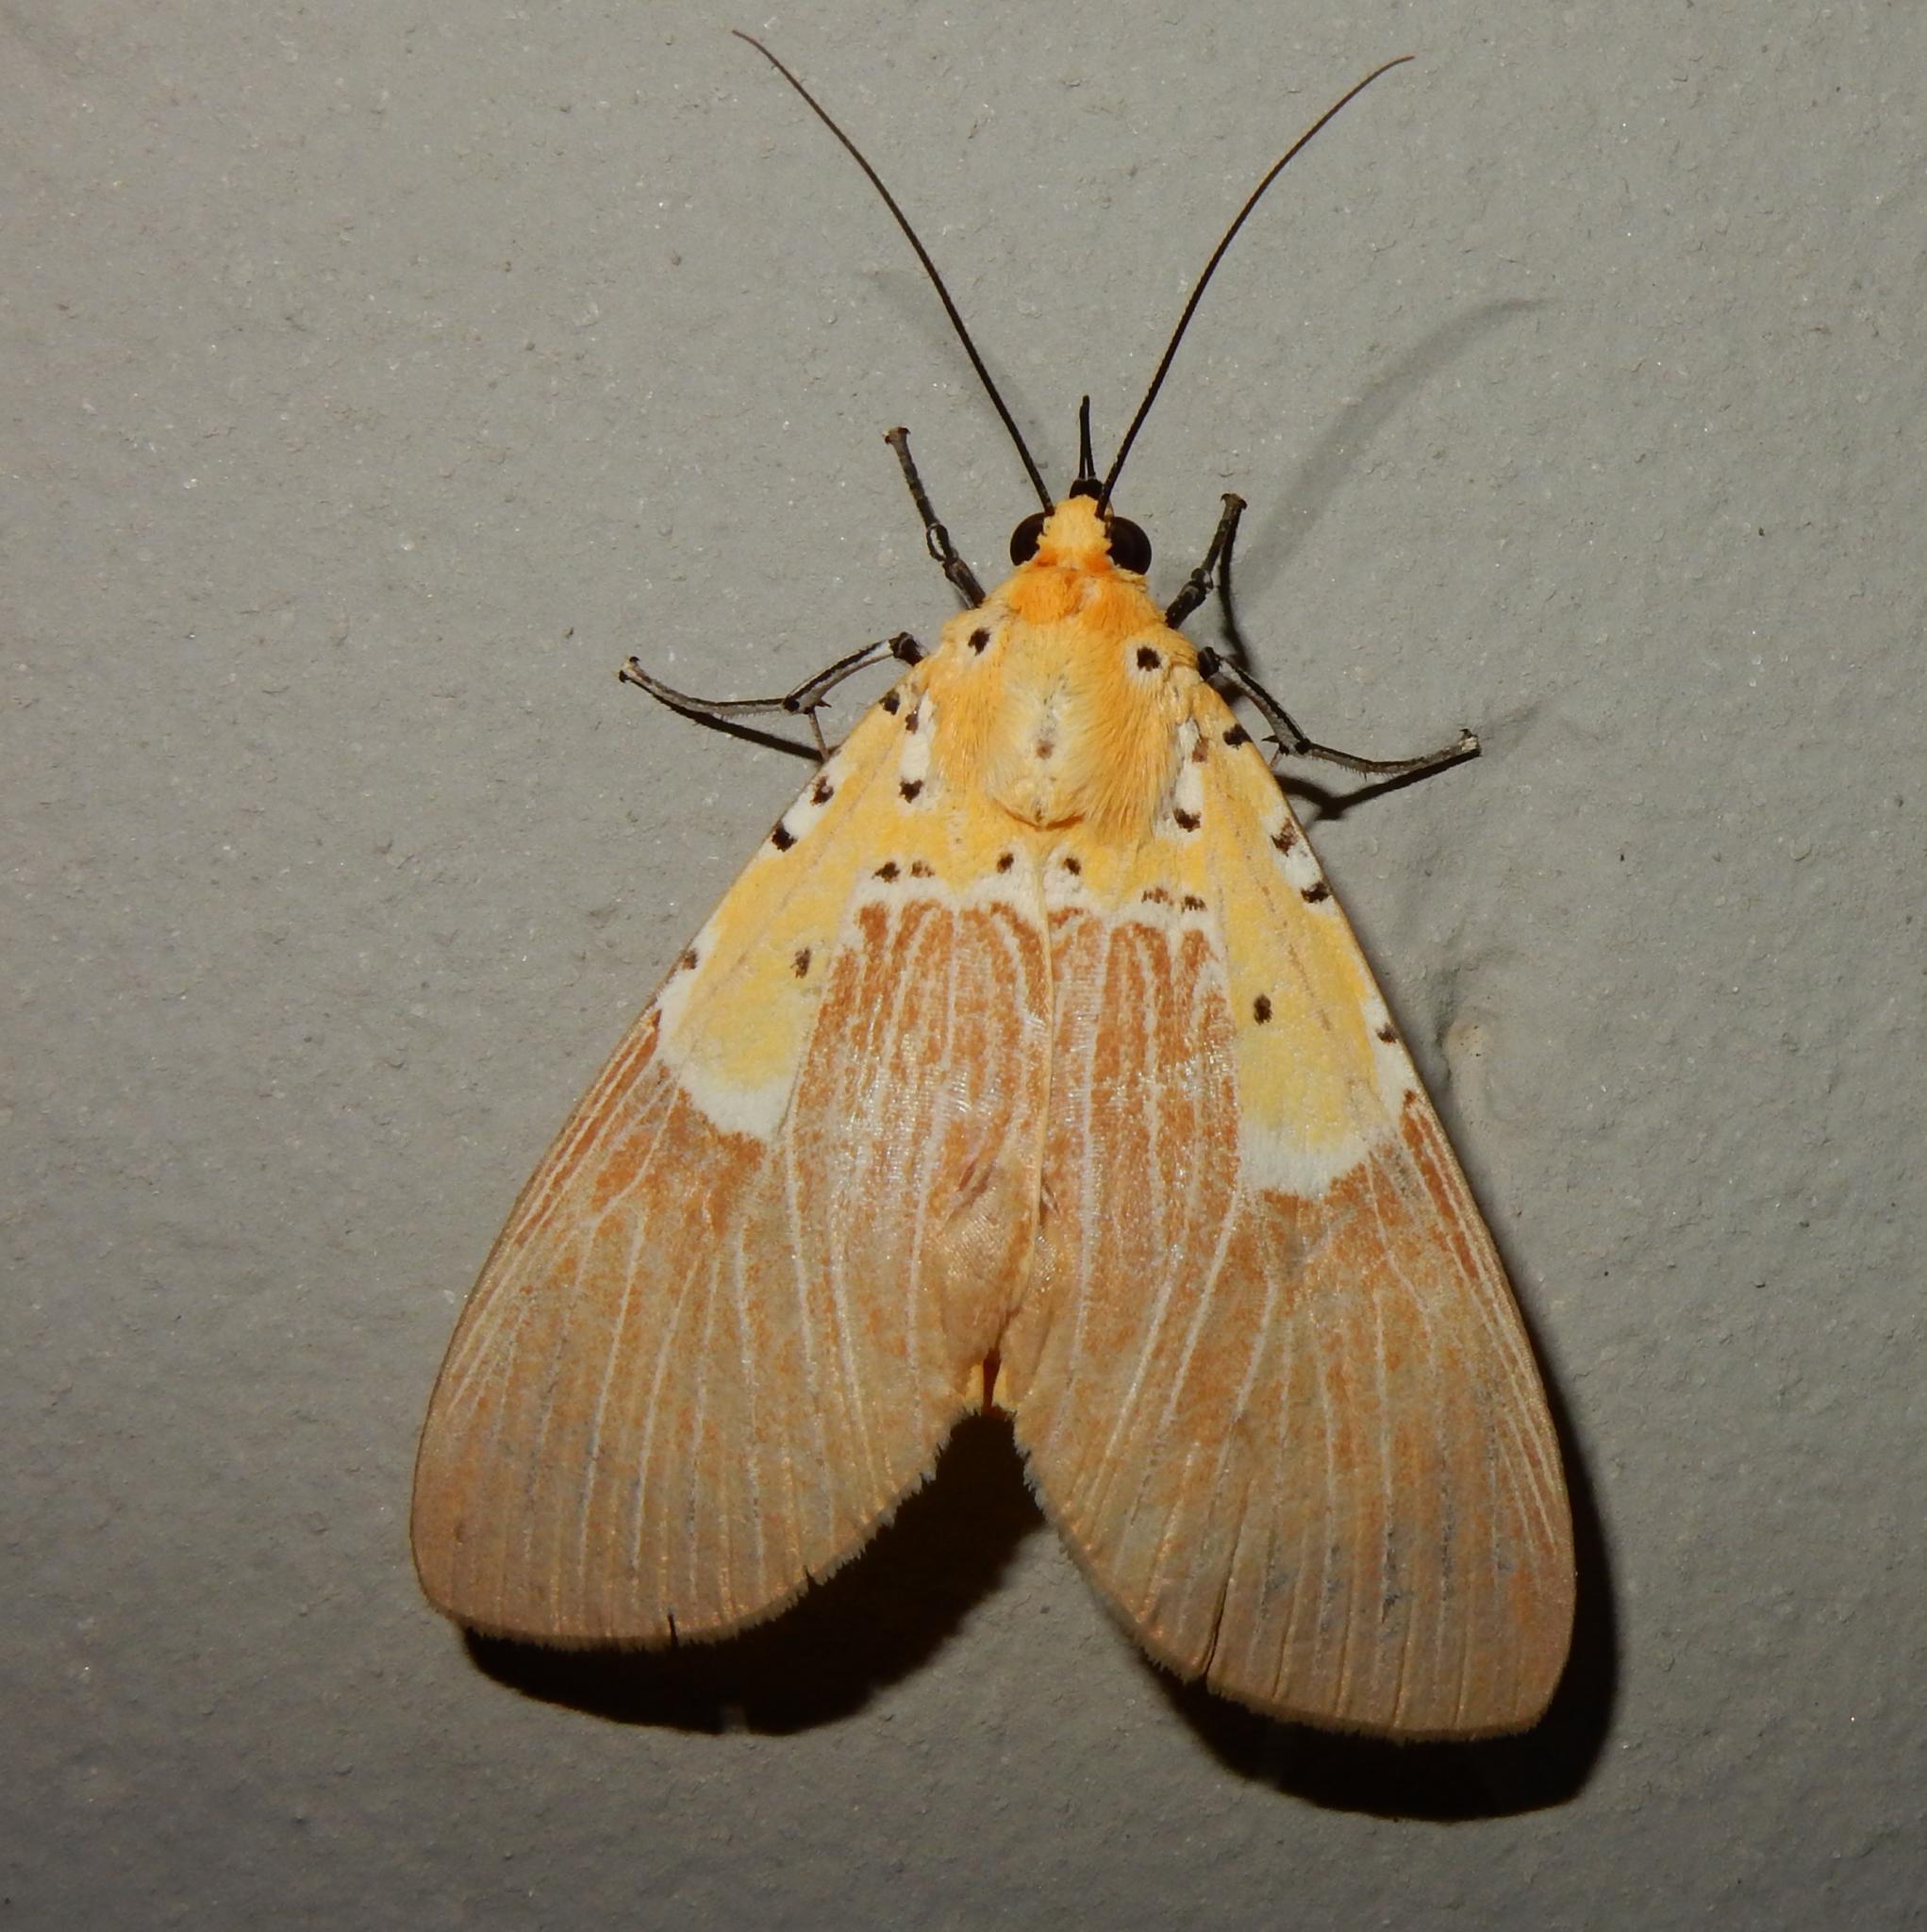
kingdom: Animalia
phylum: Arthropoda
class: Insecta
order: Lepidoptera
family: Erebidae
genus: Asota
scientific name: Asota speciosa
